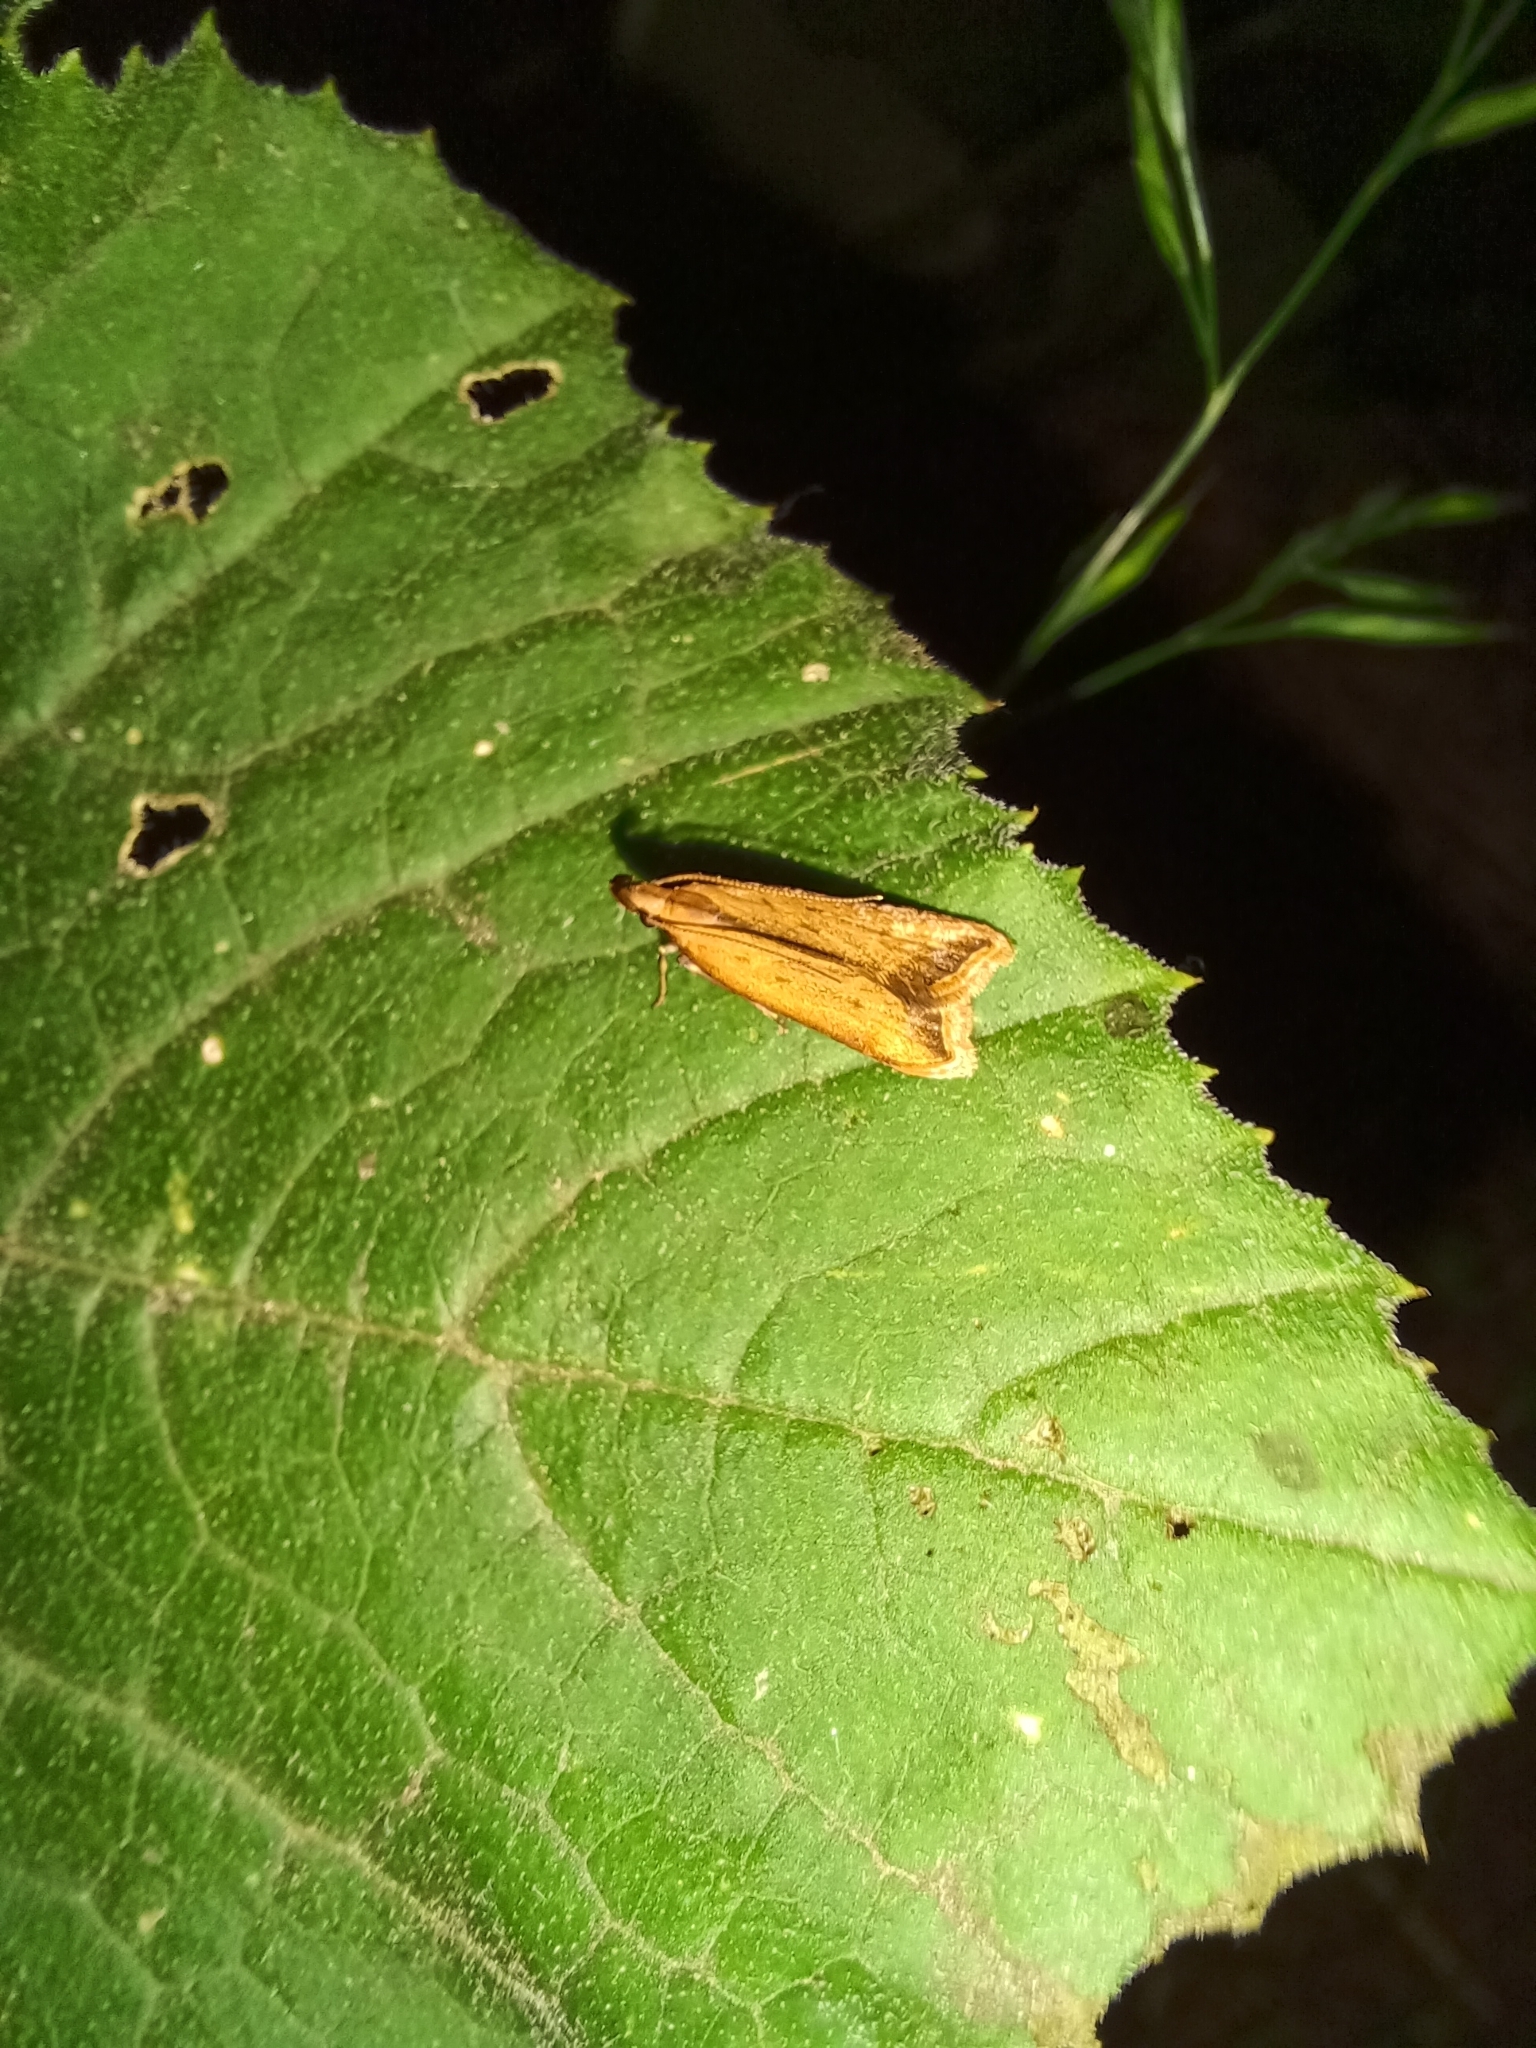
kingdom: Animalia
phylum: Arthropoda
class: Insecta
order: Lepidoptera
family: Gelechiidae
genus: Dichomeris
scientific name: Dichomeris heriguronis
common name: Black-edged dichomeris moth
